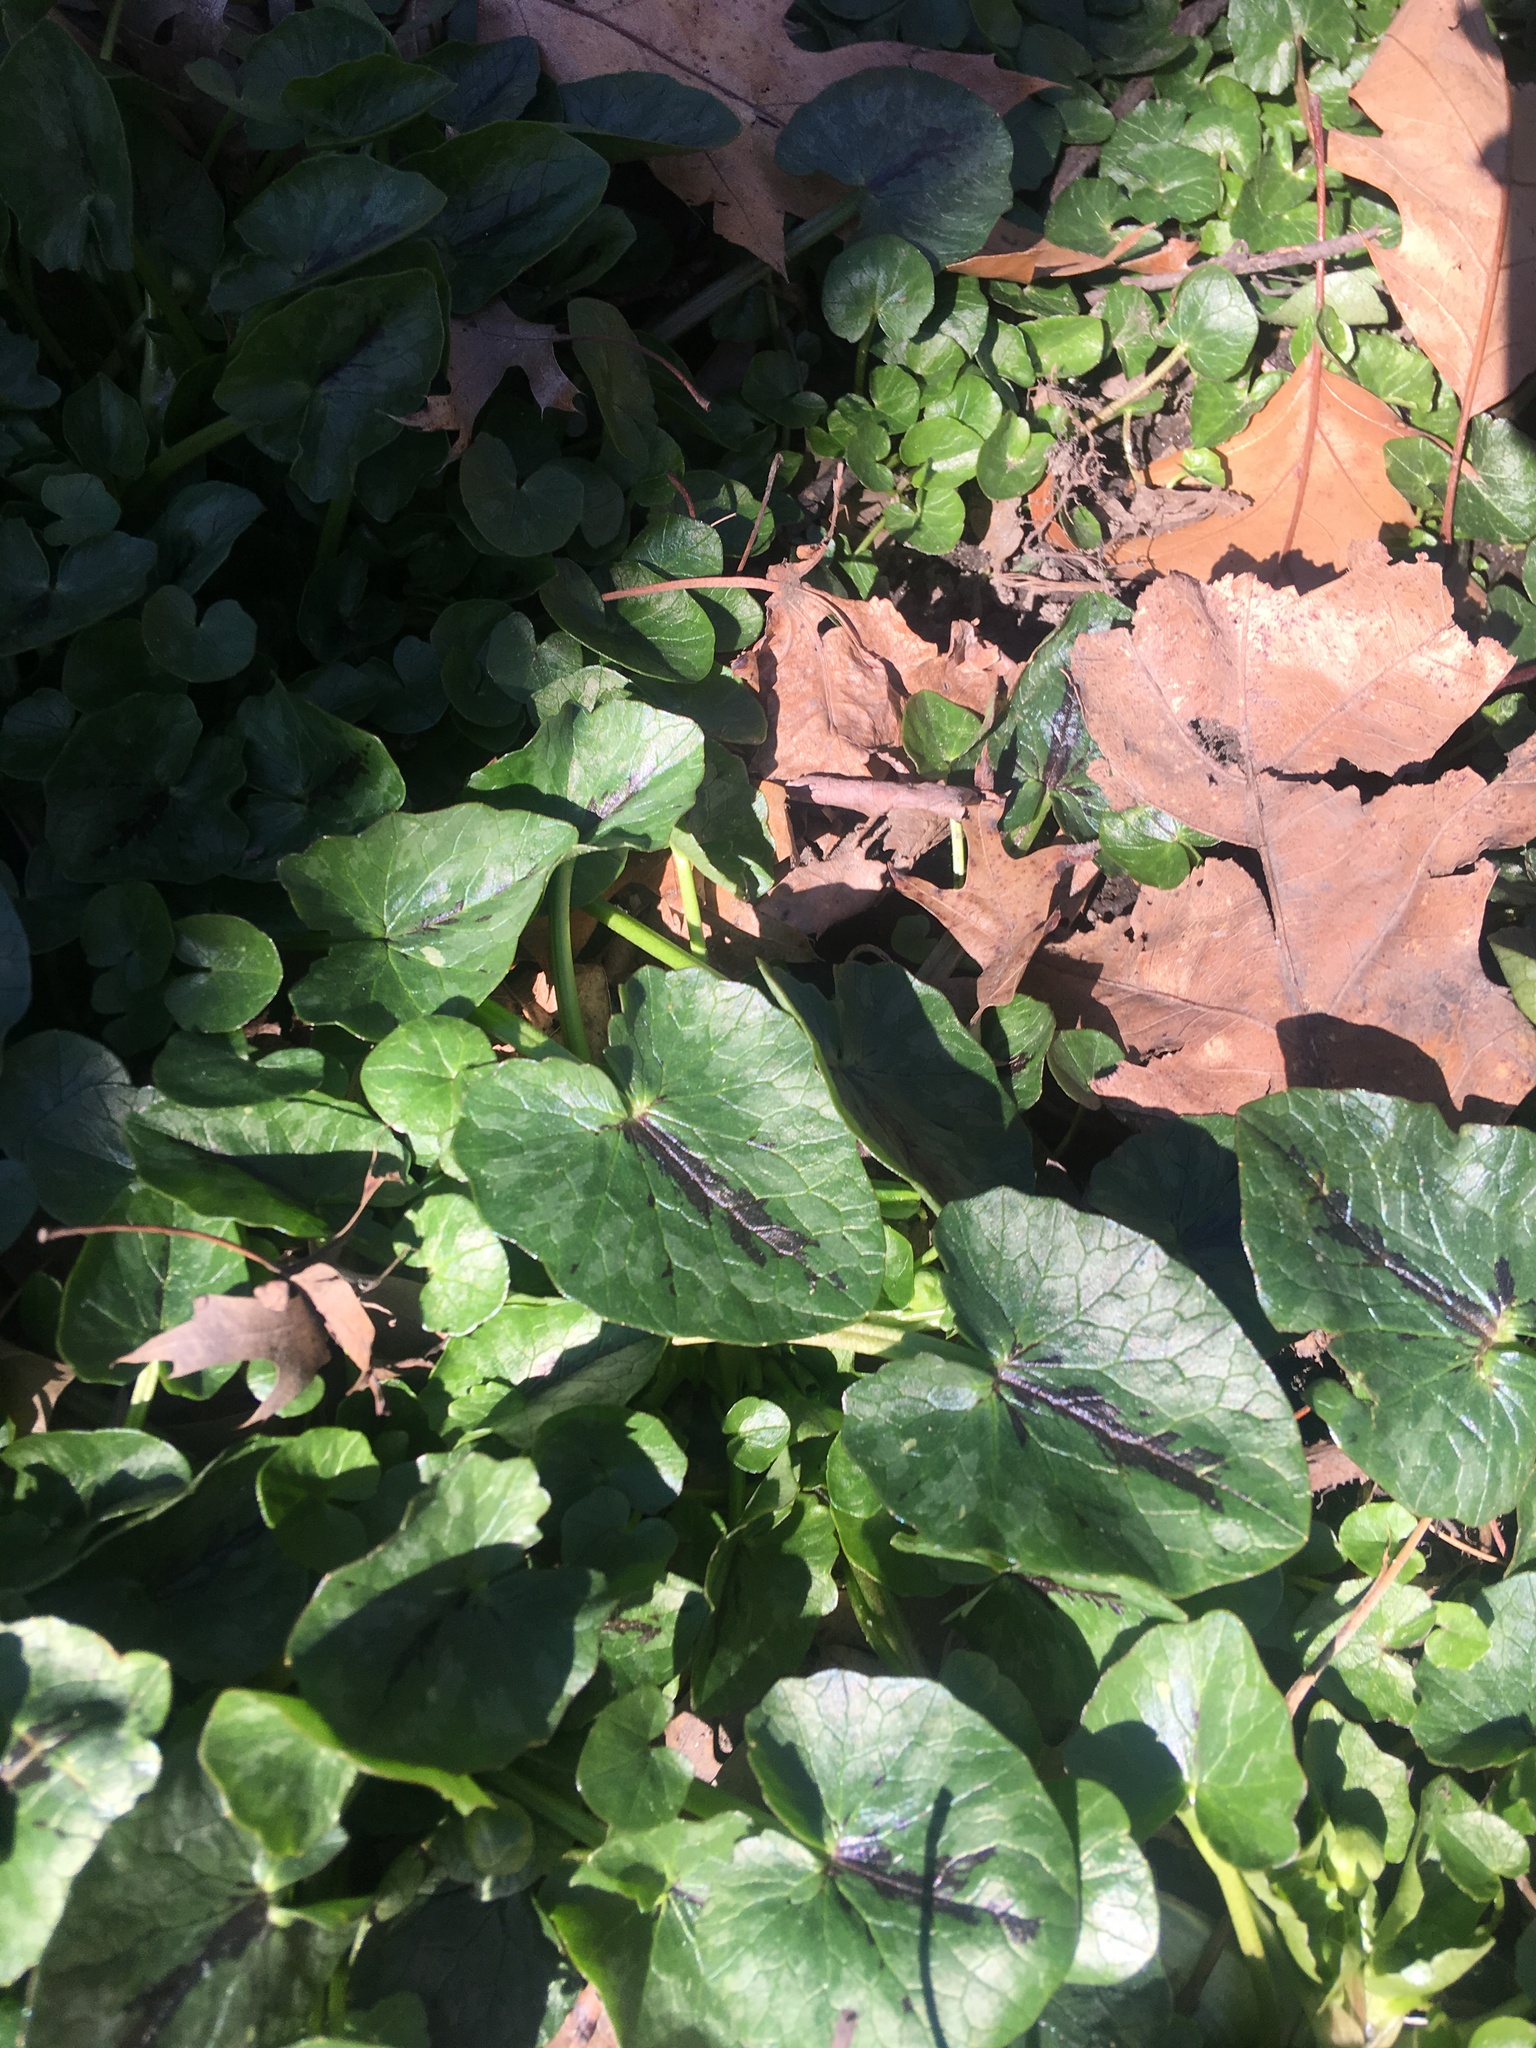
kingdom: Plantae
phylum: Tracheophyta
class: Magnoliopsida
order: Ranunculales
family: Ranunculaceae
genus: Ficaria
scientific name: Ficaria verna
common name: Lesser celandine
